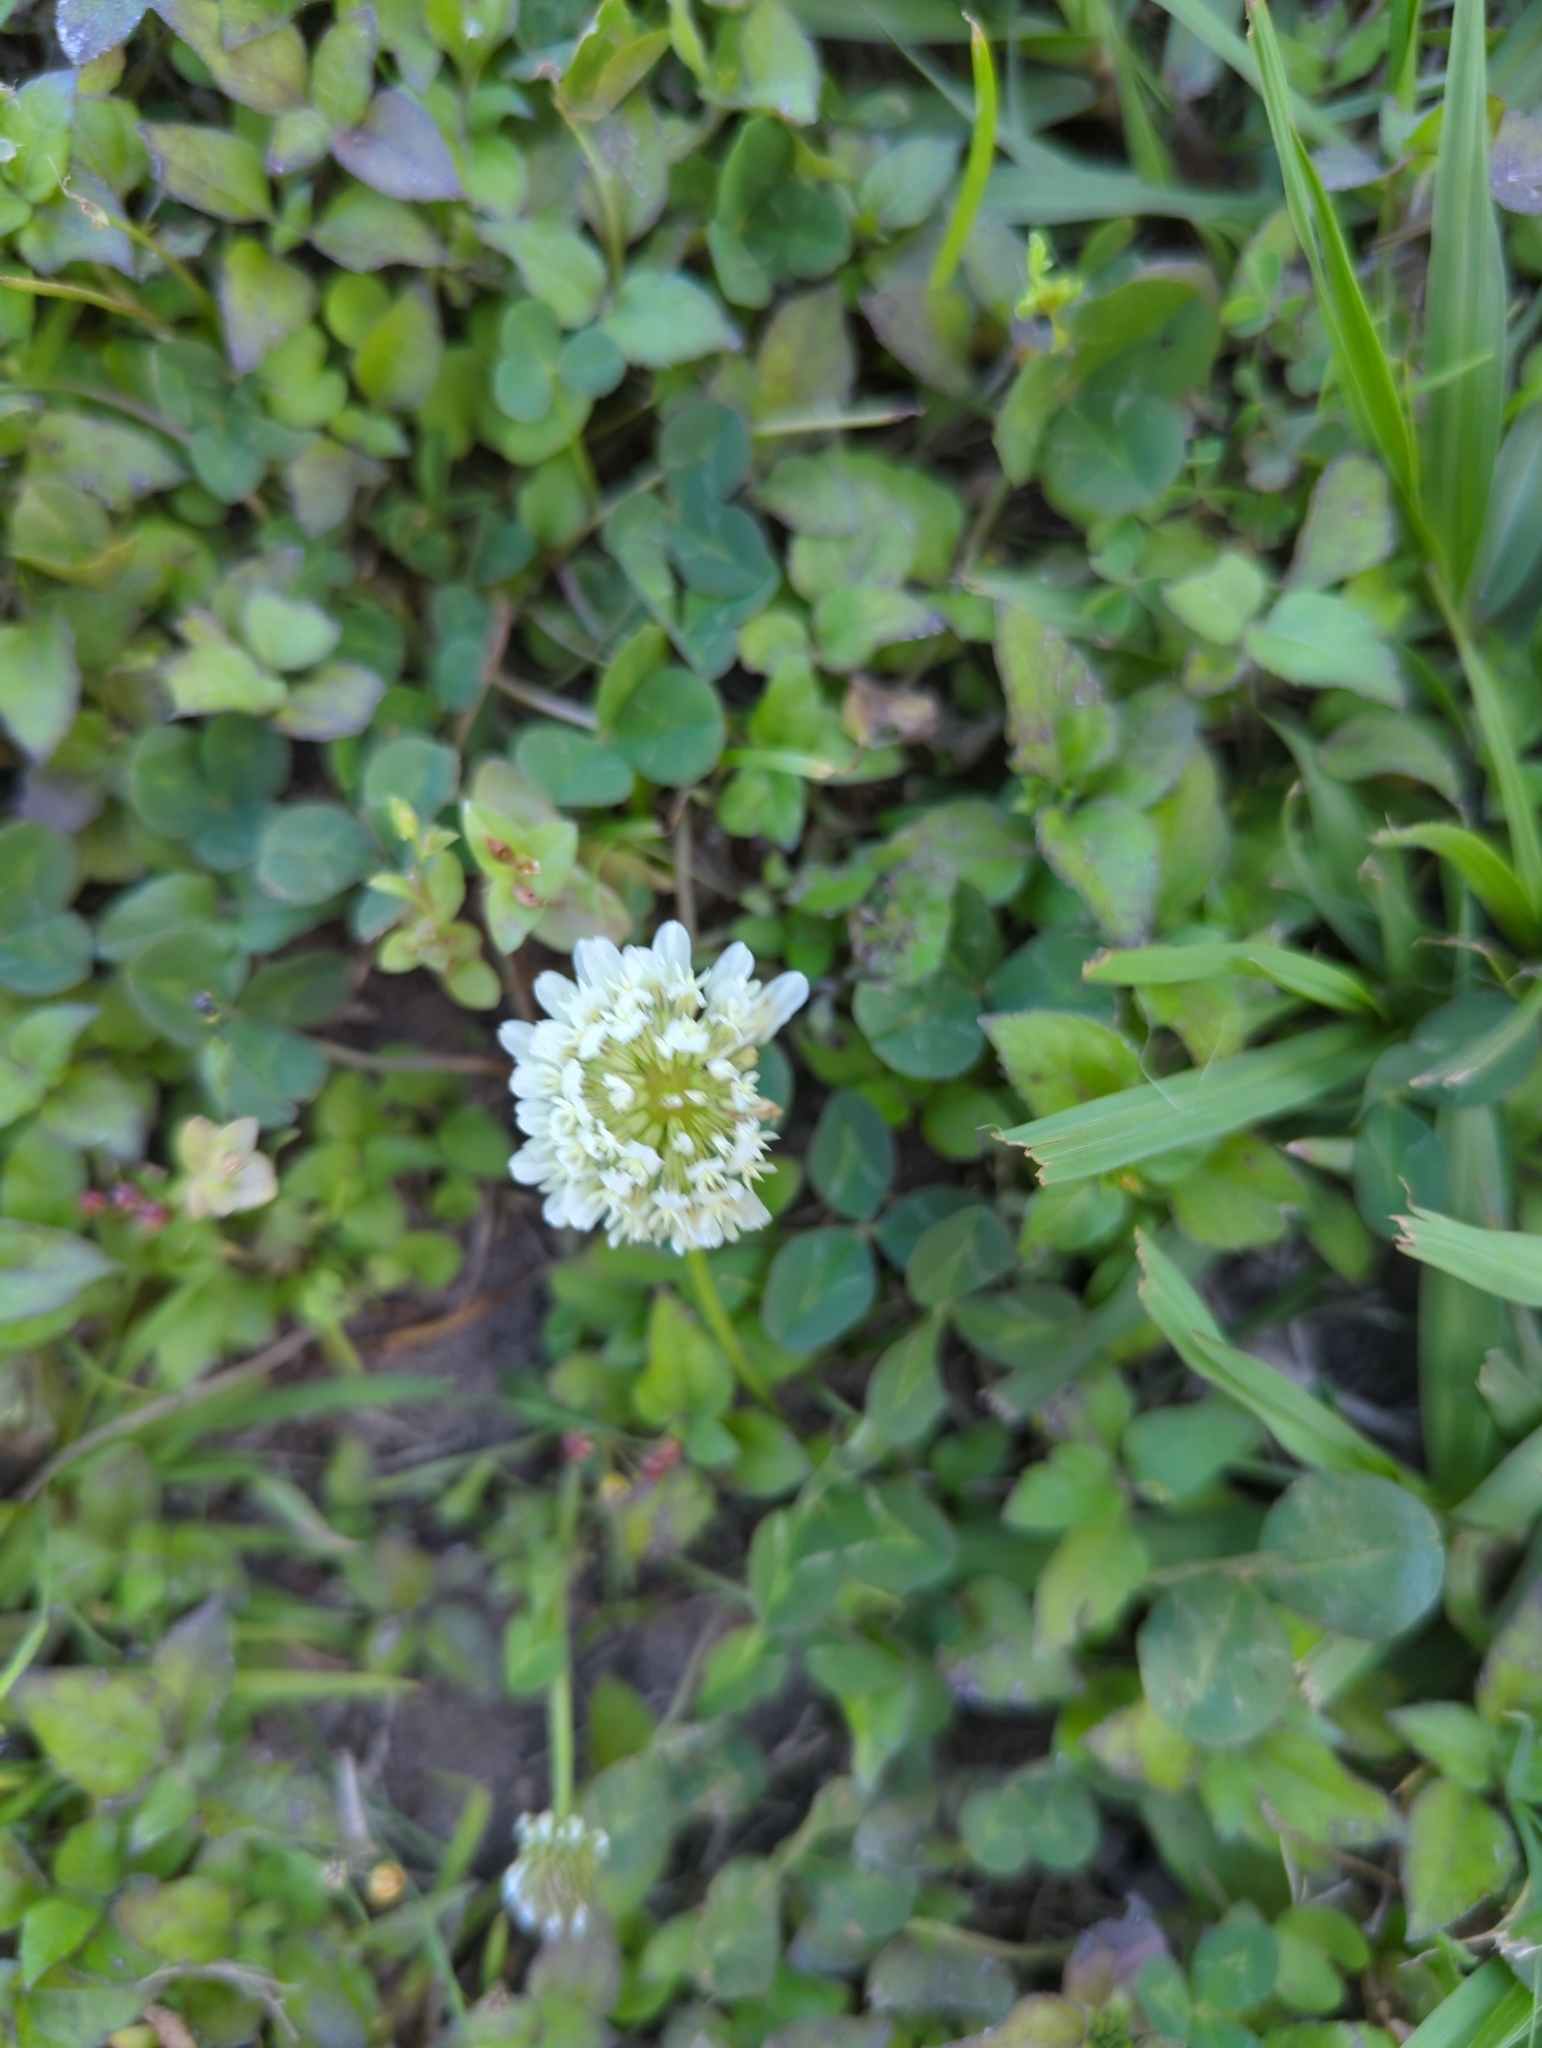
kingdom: Plantae
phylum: Tracheophyta
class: Magnoliopsida
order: Fabales
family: Fabaceae
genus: Trifolium
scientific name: Trifolium repens
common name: White clover
